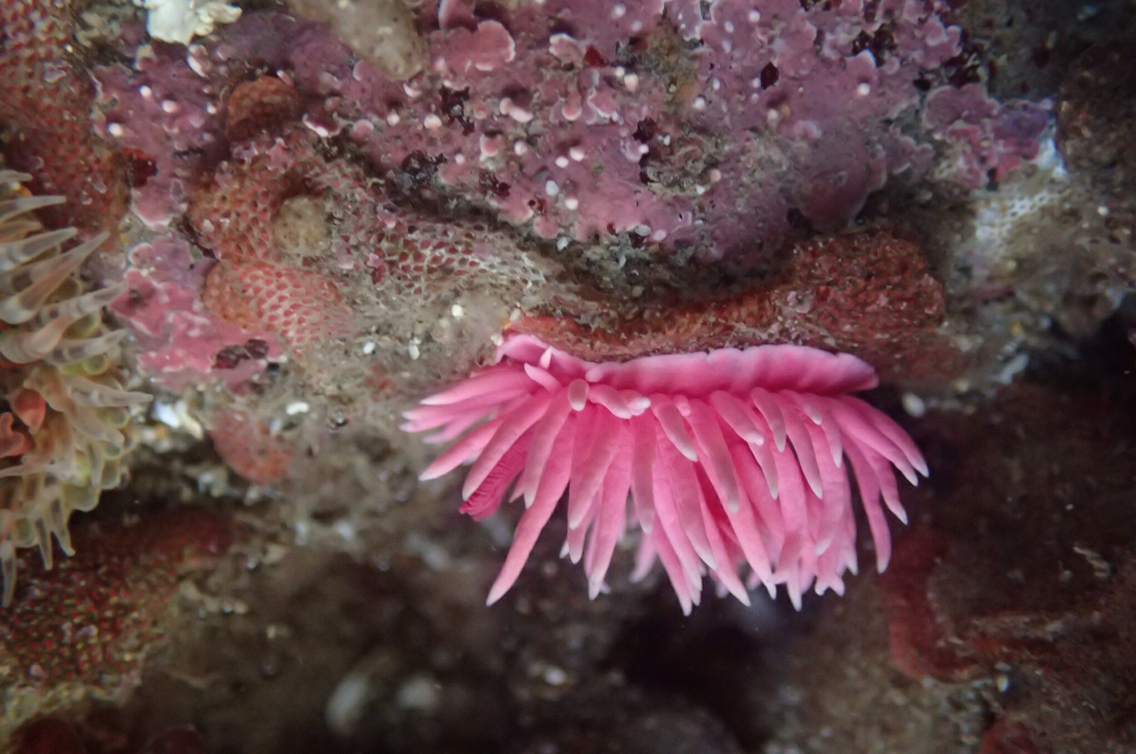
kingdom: Animalia
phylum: Mollusca
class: Gastropoda
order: Nudibranchia
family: Goniodorididae
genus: Okenia
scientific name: Okenia
